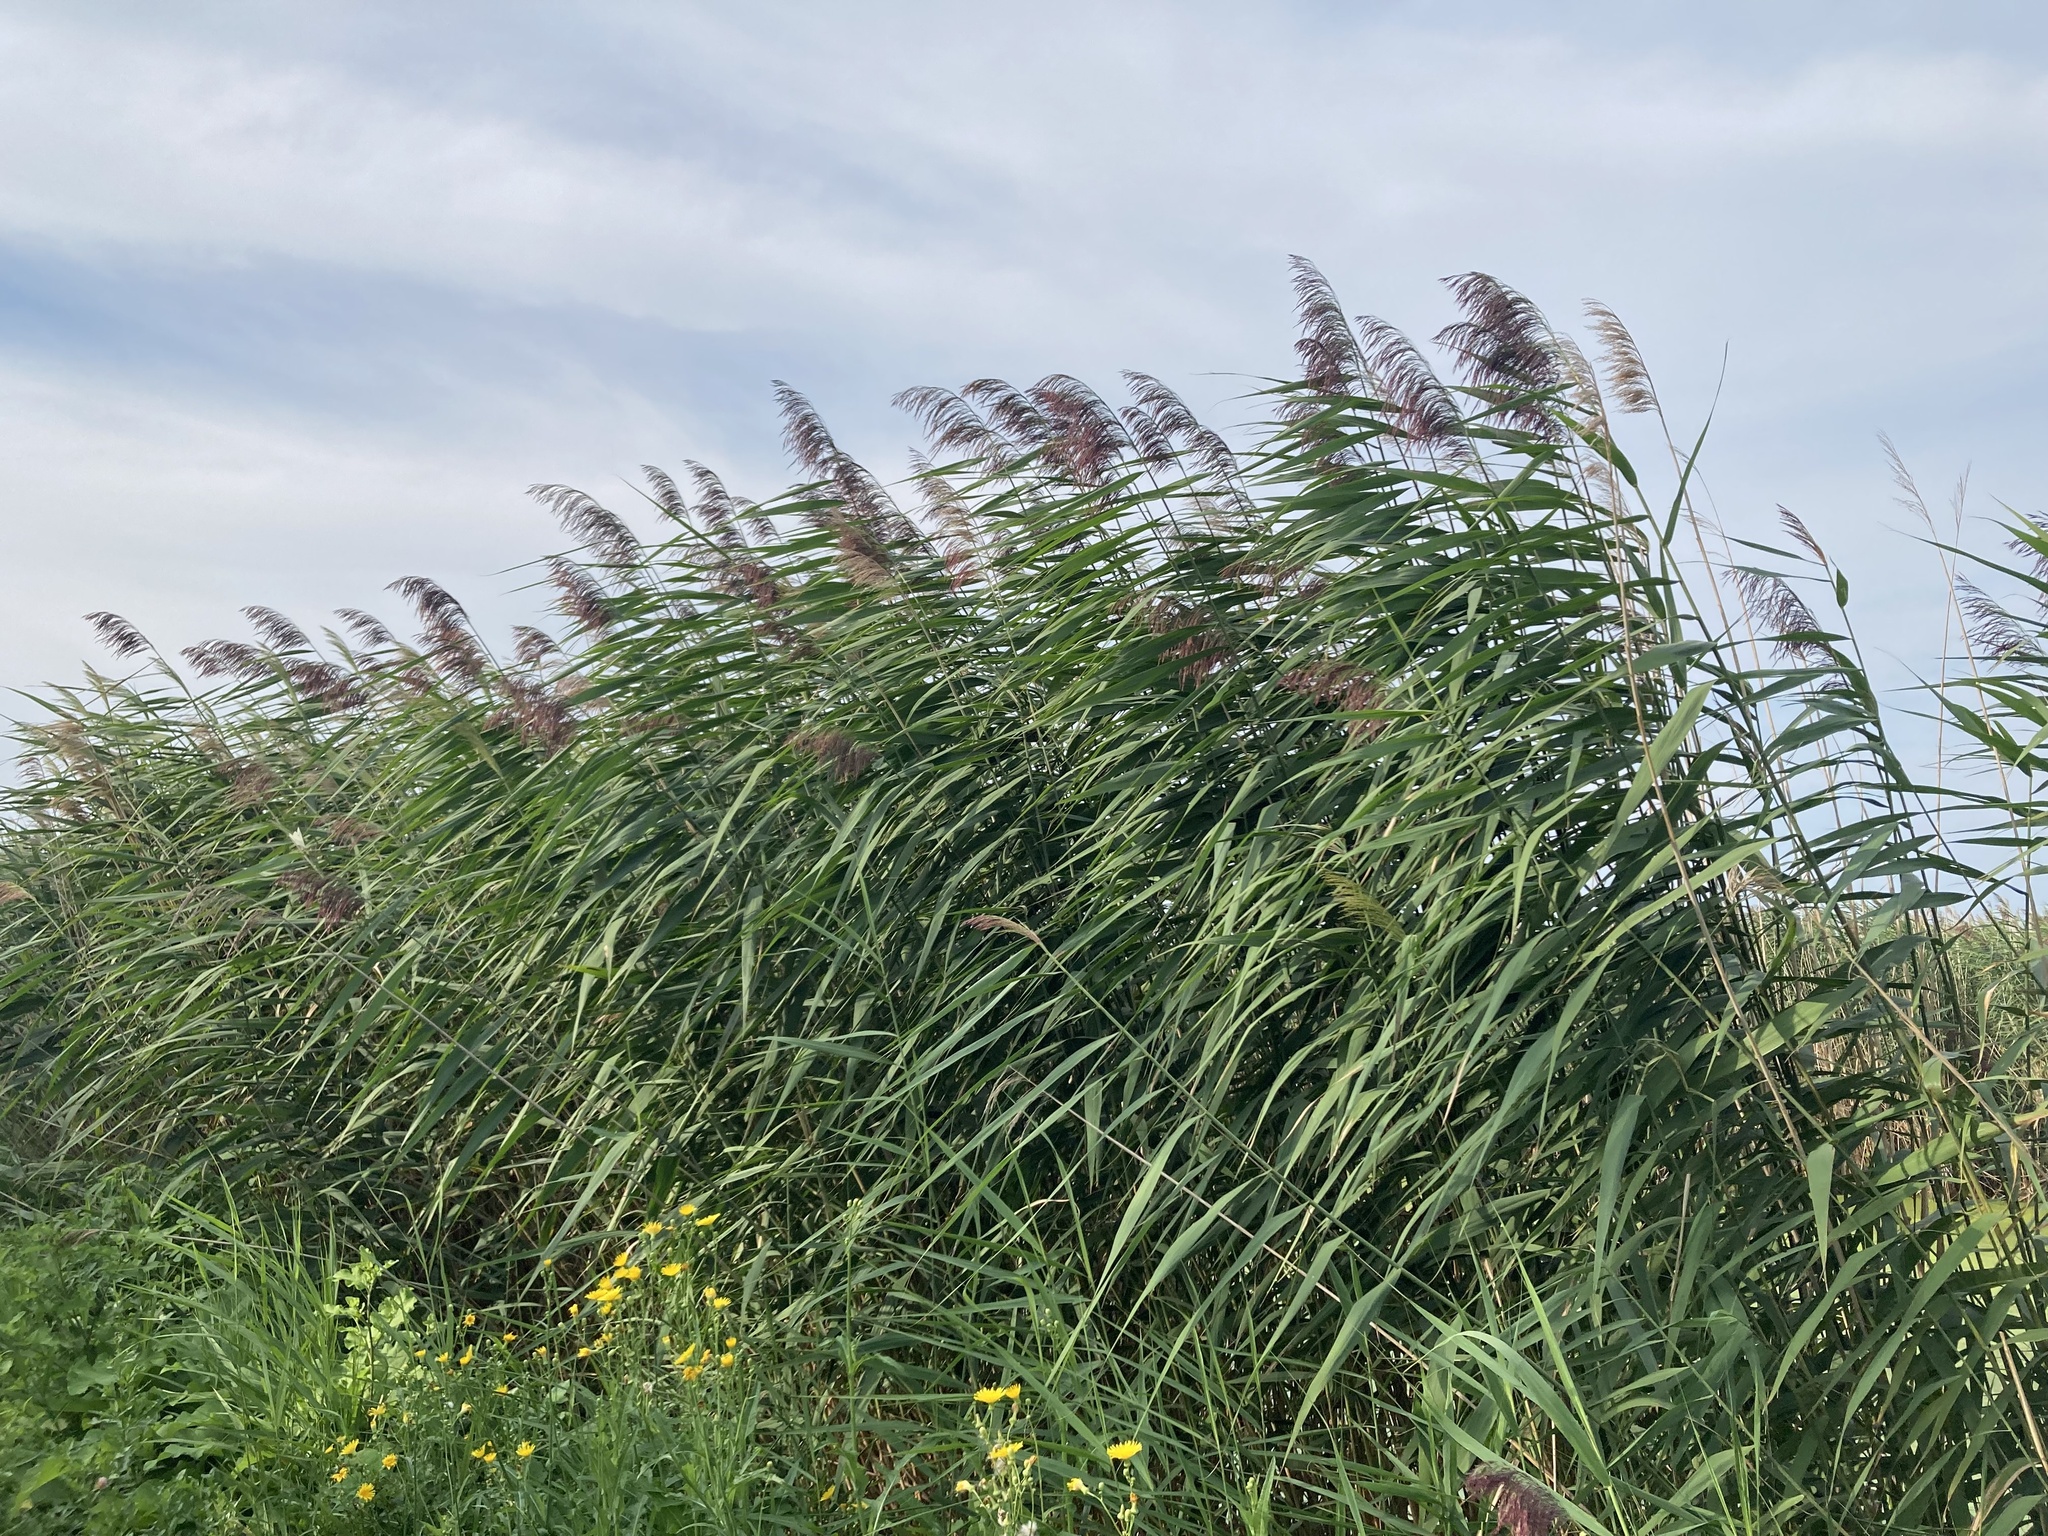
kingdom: Plantae
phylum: Tracheophyta
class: Liliopsida
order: Poales
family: Poaceae
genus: Phragmites
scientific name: Phragmites australis
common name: Common reed
